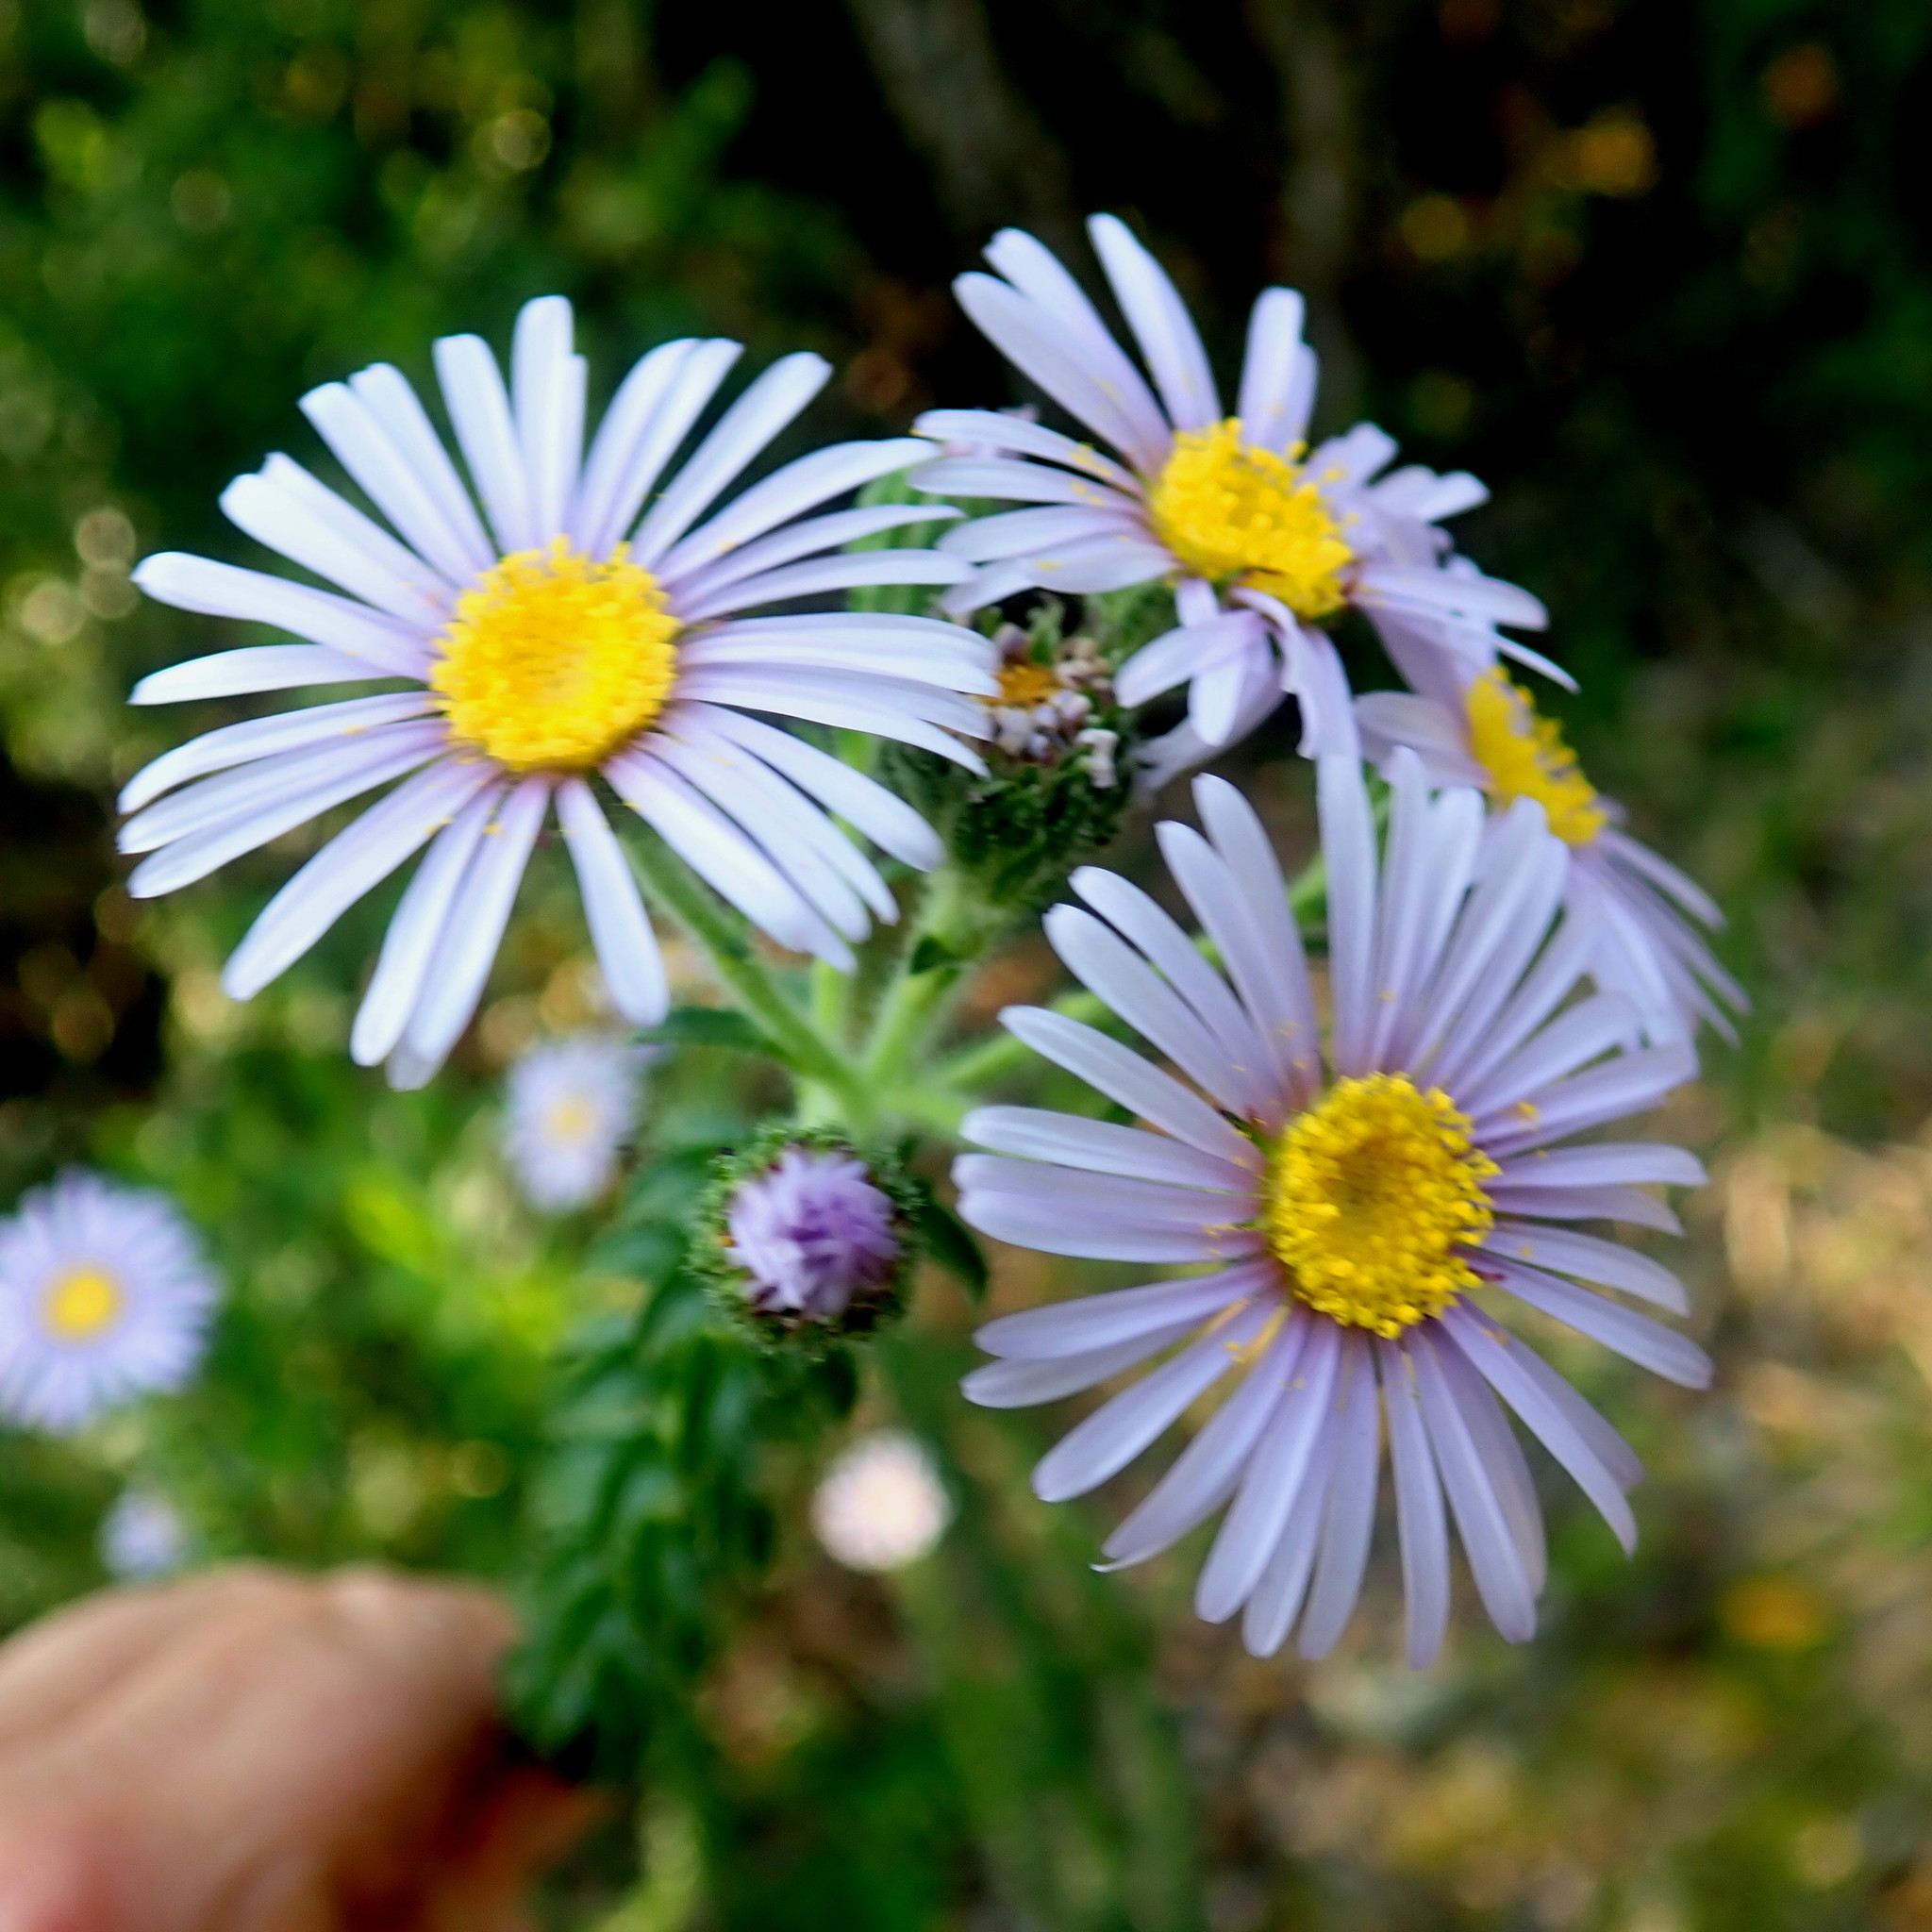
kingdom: Plantae
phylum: Tracheophyta
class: Magnoliopsida
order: Asterales
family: Asteraceae
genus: Felicia
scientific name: Felicia echinata
